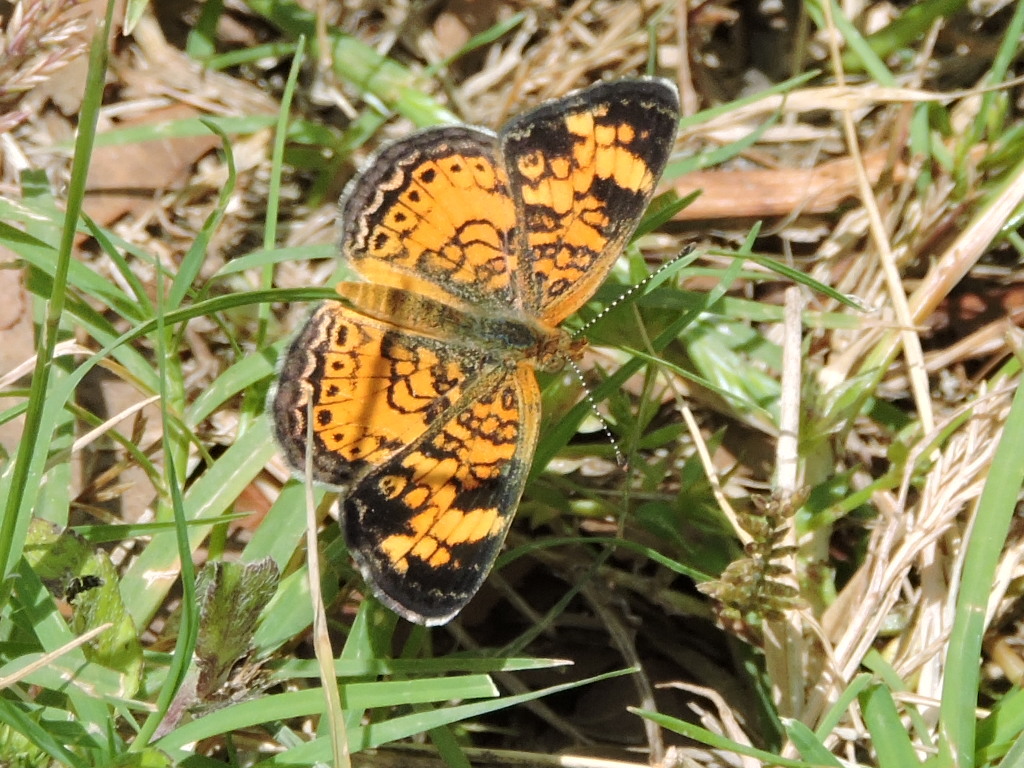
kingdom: Animalia
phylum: Arthropoda
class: Insecta
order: Lepidoptera
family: Nymphalidae
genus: Phyciodes
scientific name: Phyciodes tharos
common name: Pearl crescent
